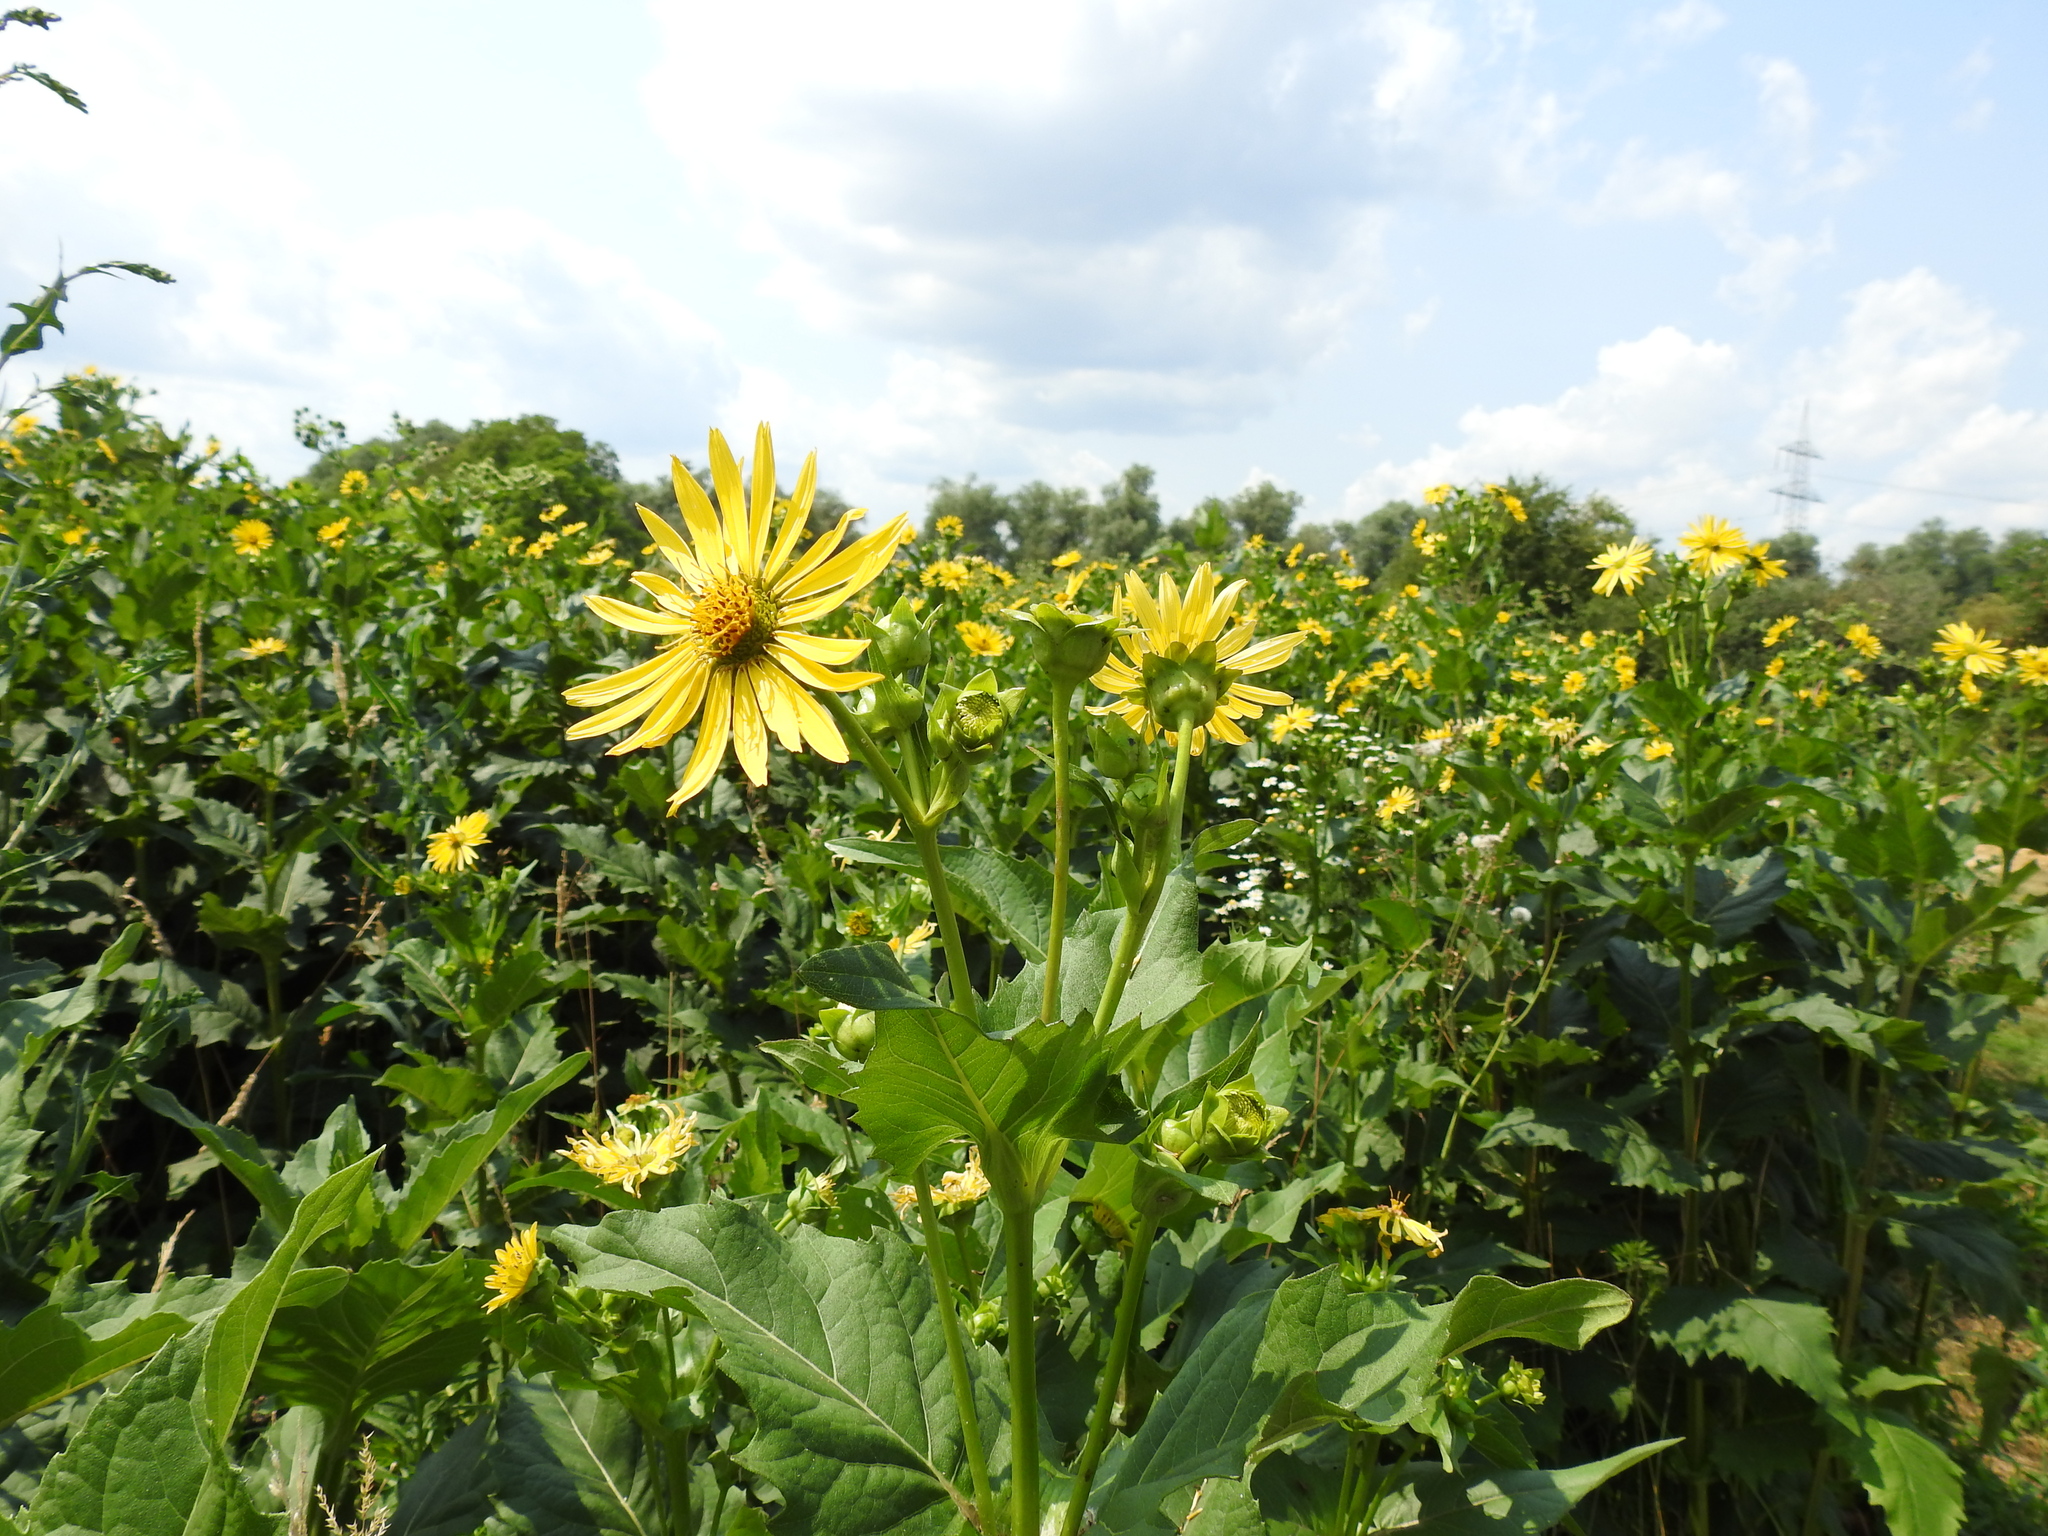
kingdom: Plantae
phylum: Tracheophyta
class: Magnoliopsida
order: Asterales
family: Asteraceae
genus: Silphium
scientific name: Silphium perfoliatum
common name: Cup-plant
